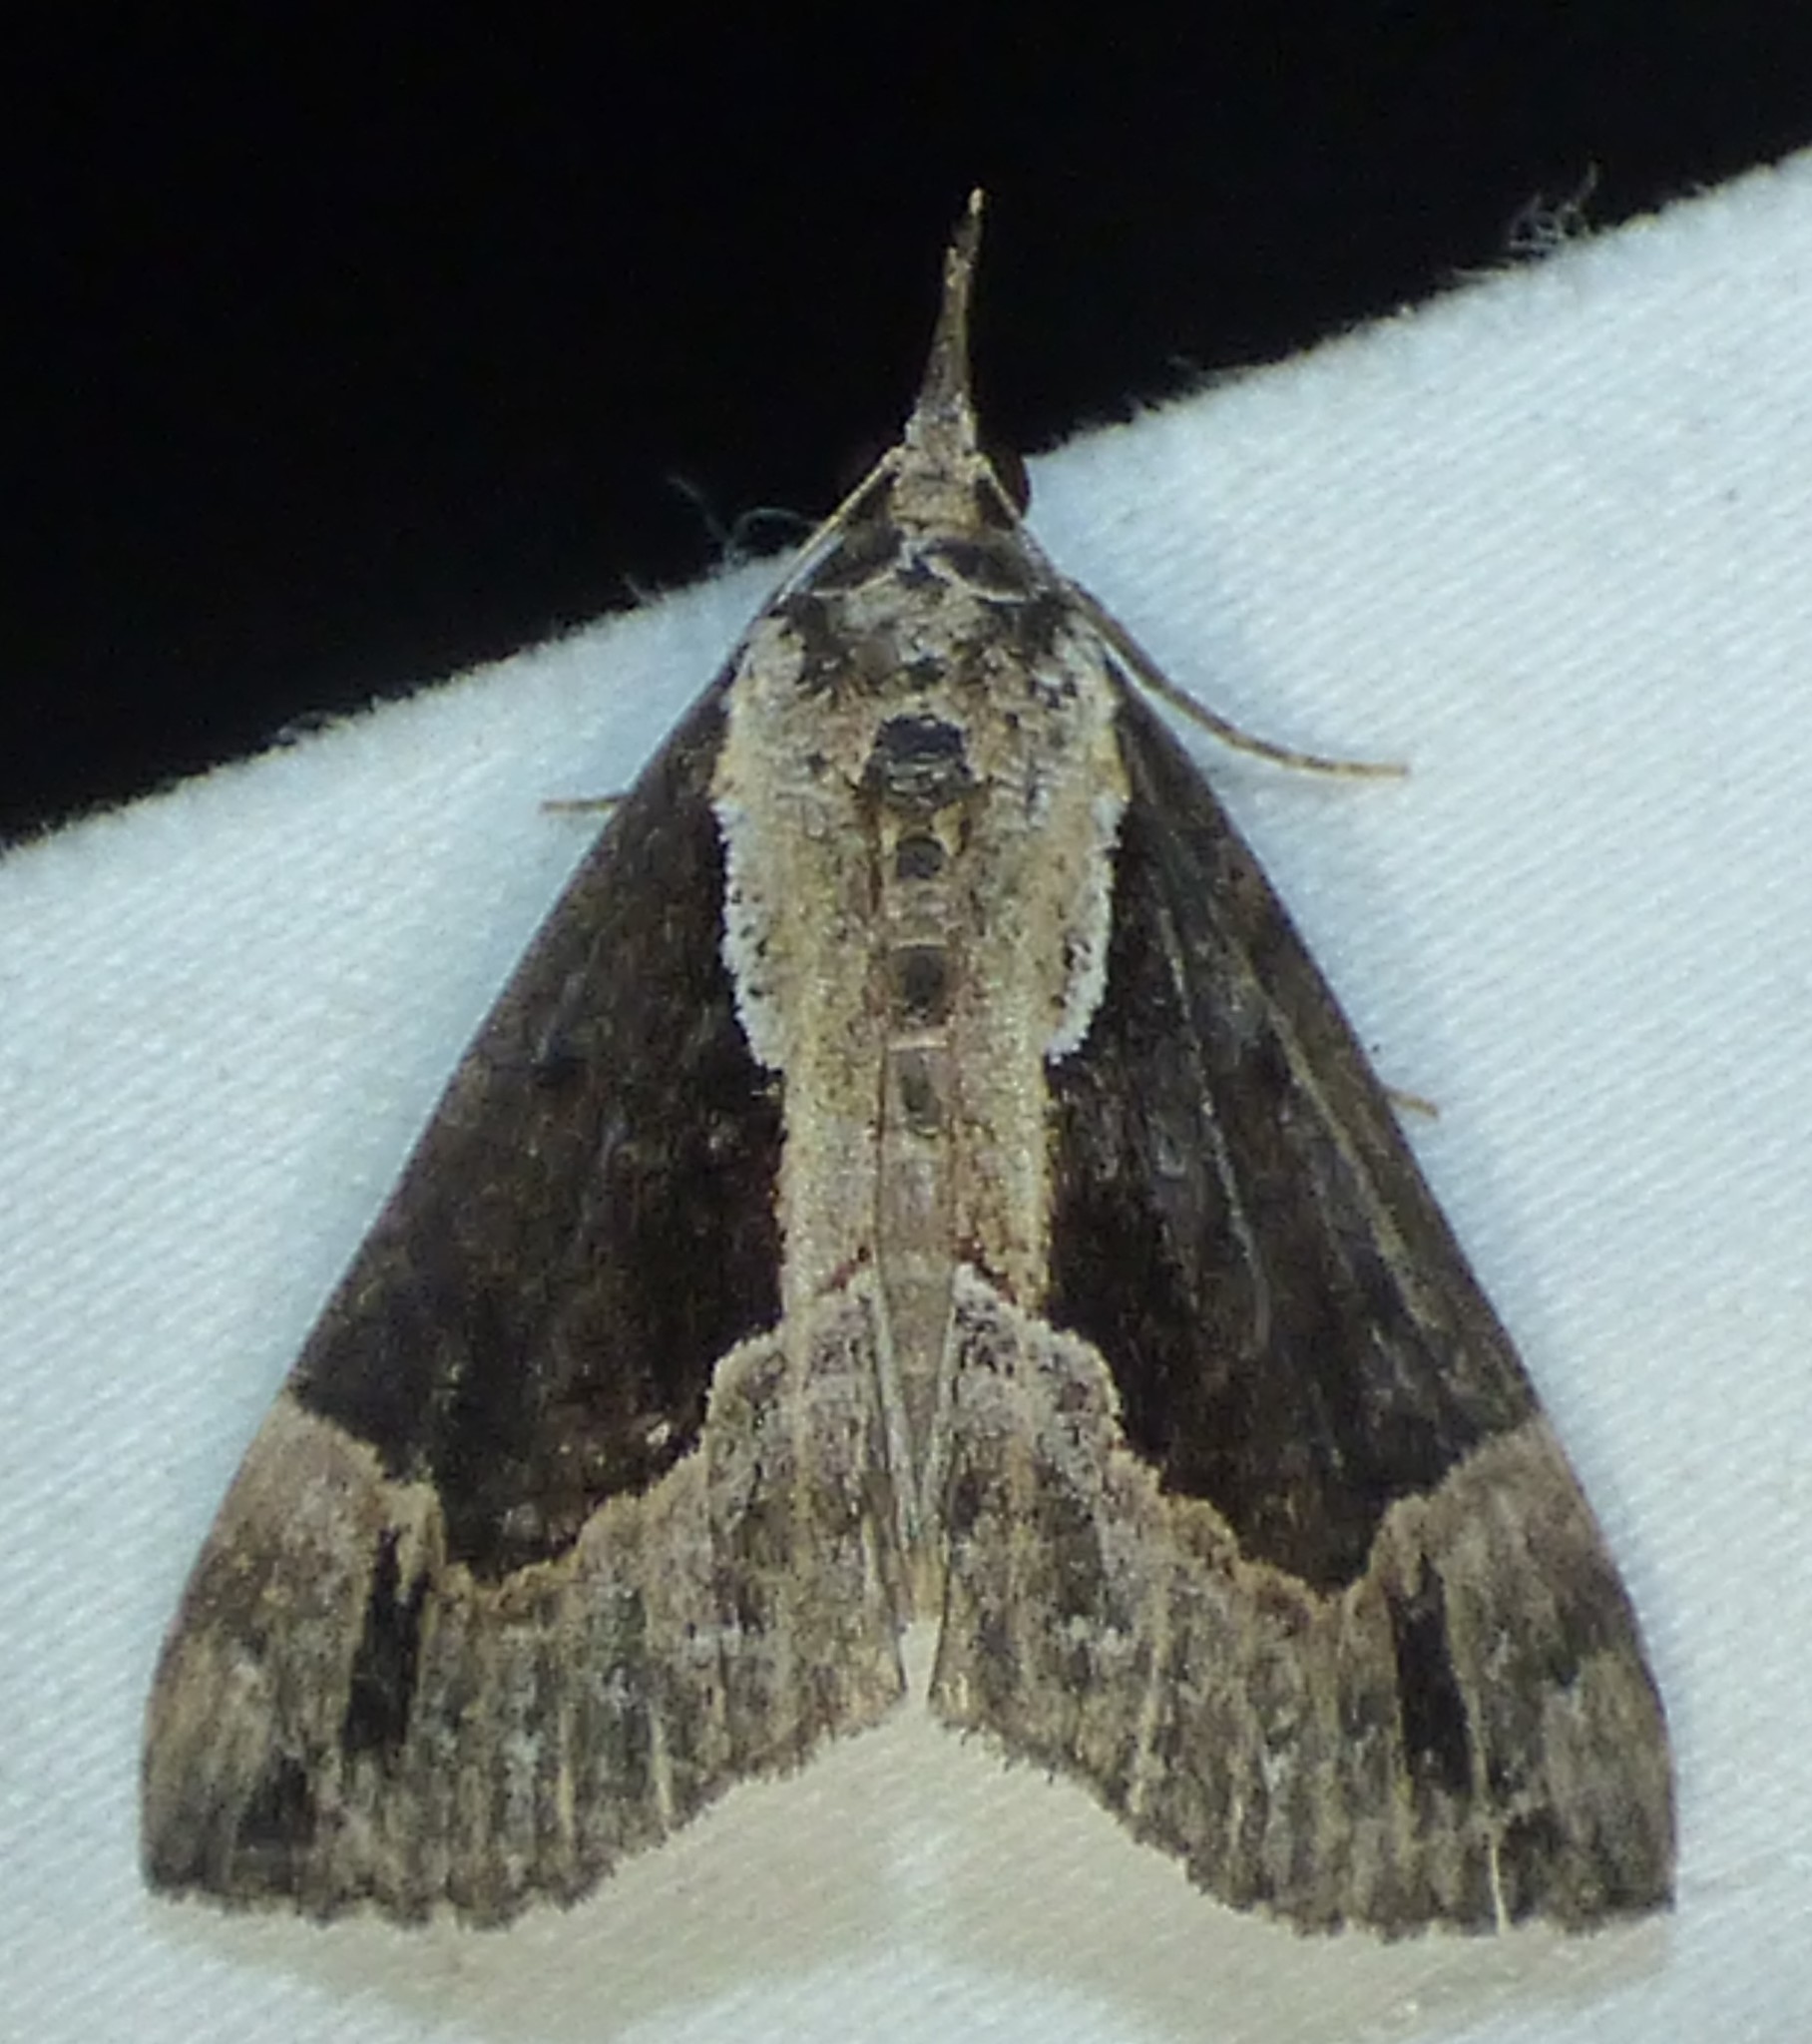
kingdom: Animalia
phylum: Arthropoda
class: Insecta
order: Lepidoptera
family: Erebidae
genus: Hypena
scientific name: Hypena baltimoralis
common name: Baltimore snout
